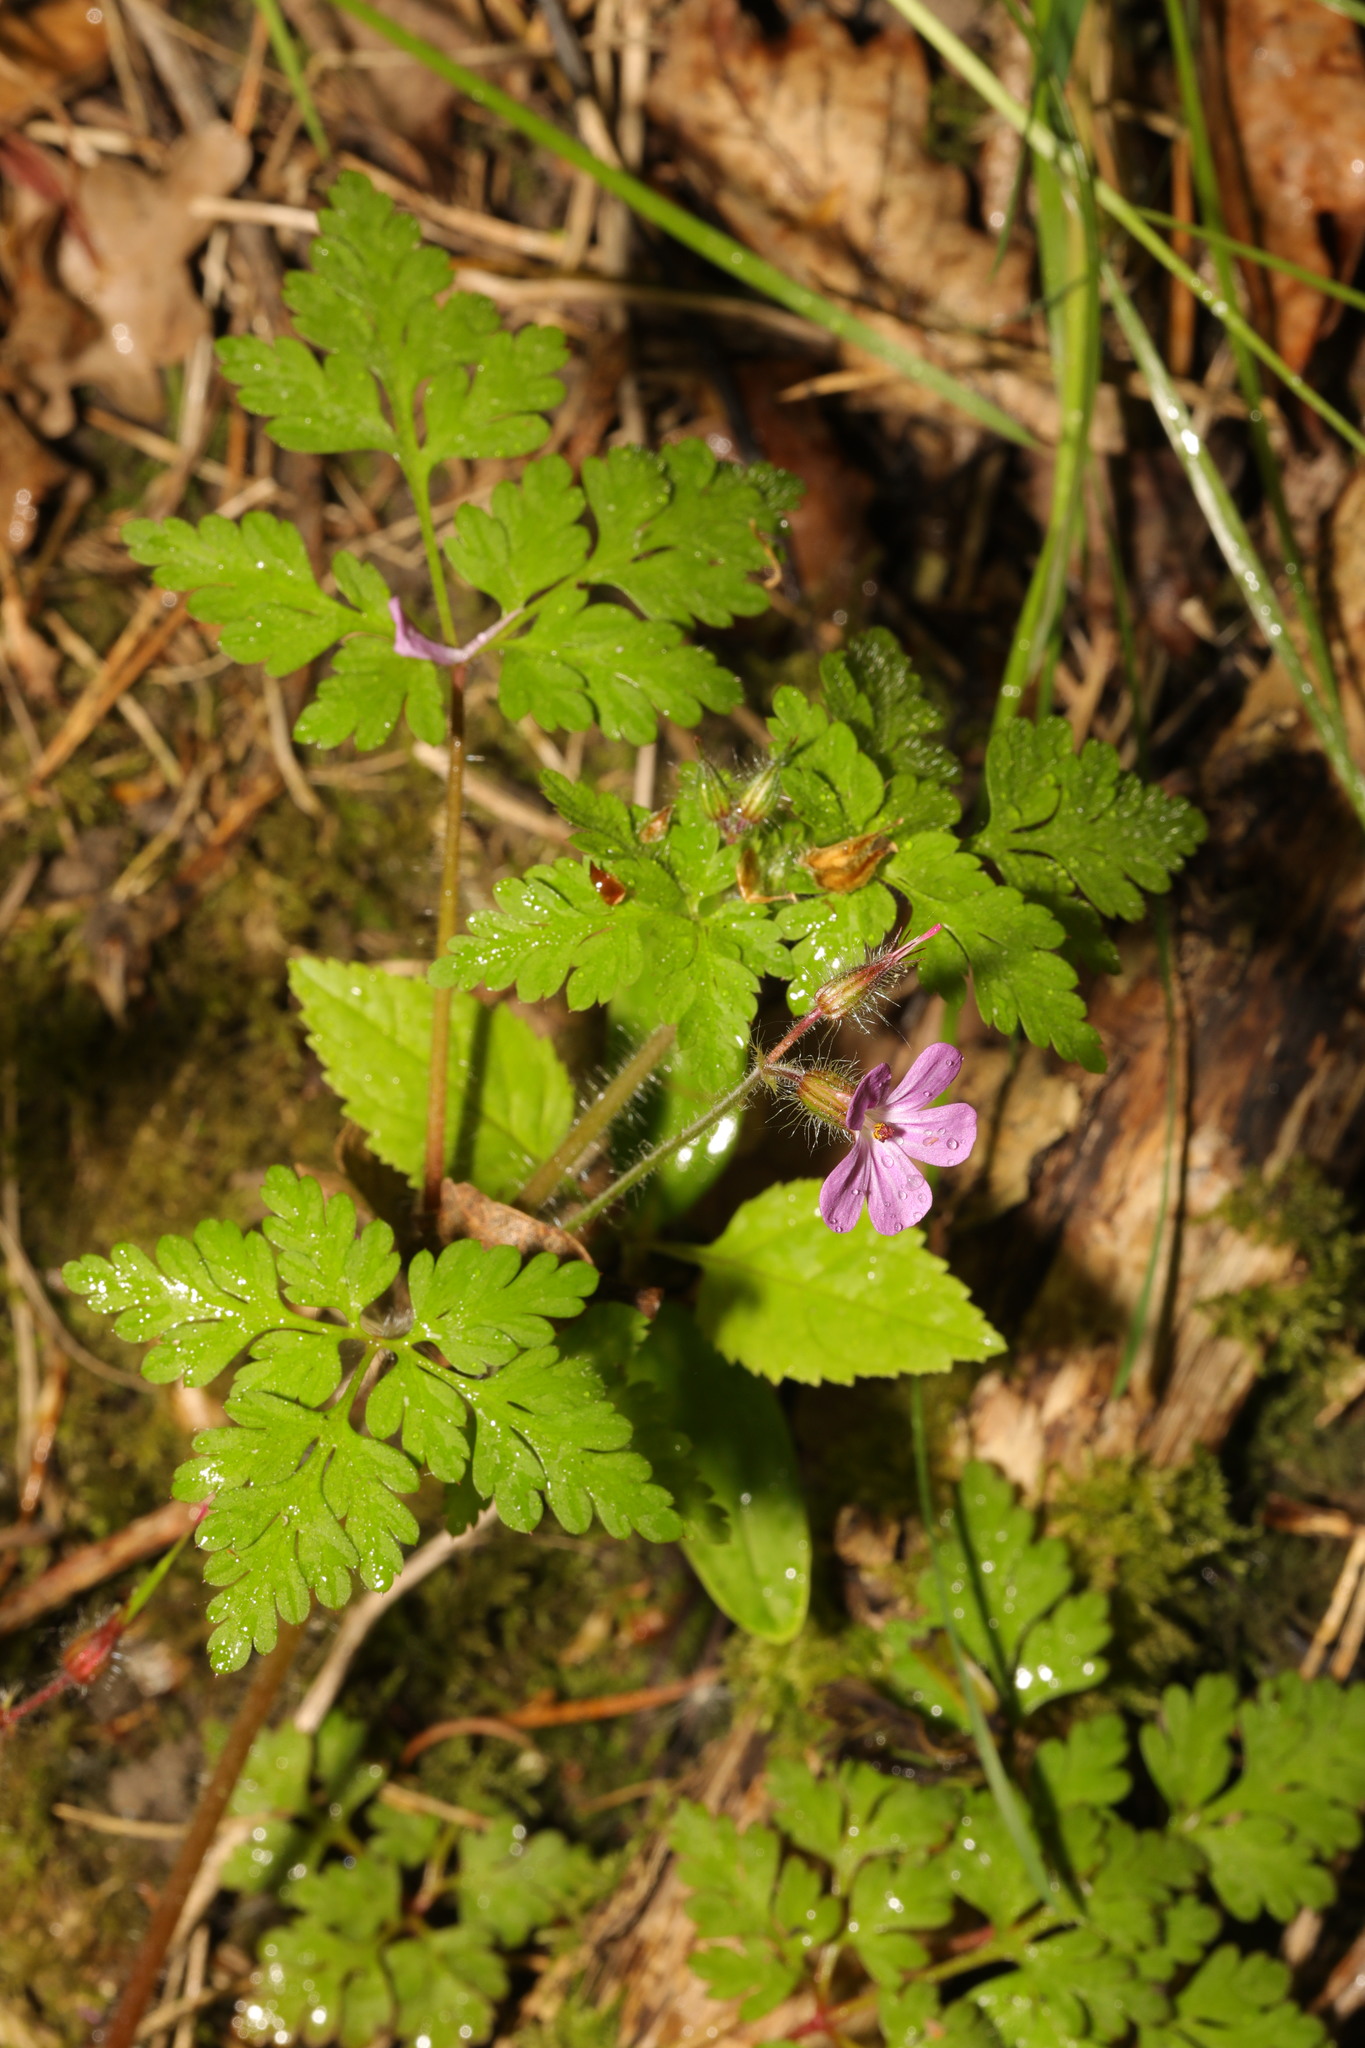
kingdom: Plantae
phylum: Tracheophyta
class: Magnoliopsida
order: Geraniales
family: Geraniaceae
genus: Geranium
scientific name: Geranium robertianum
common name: Herb-robert
